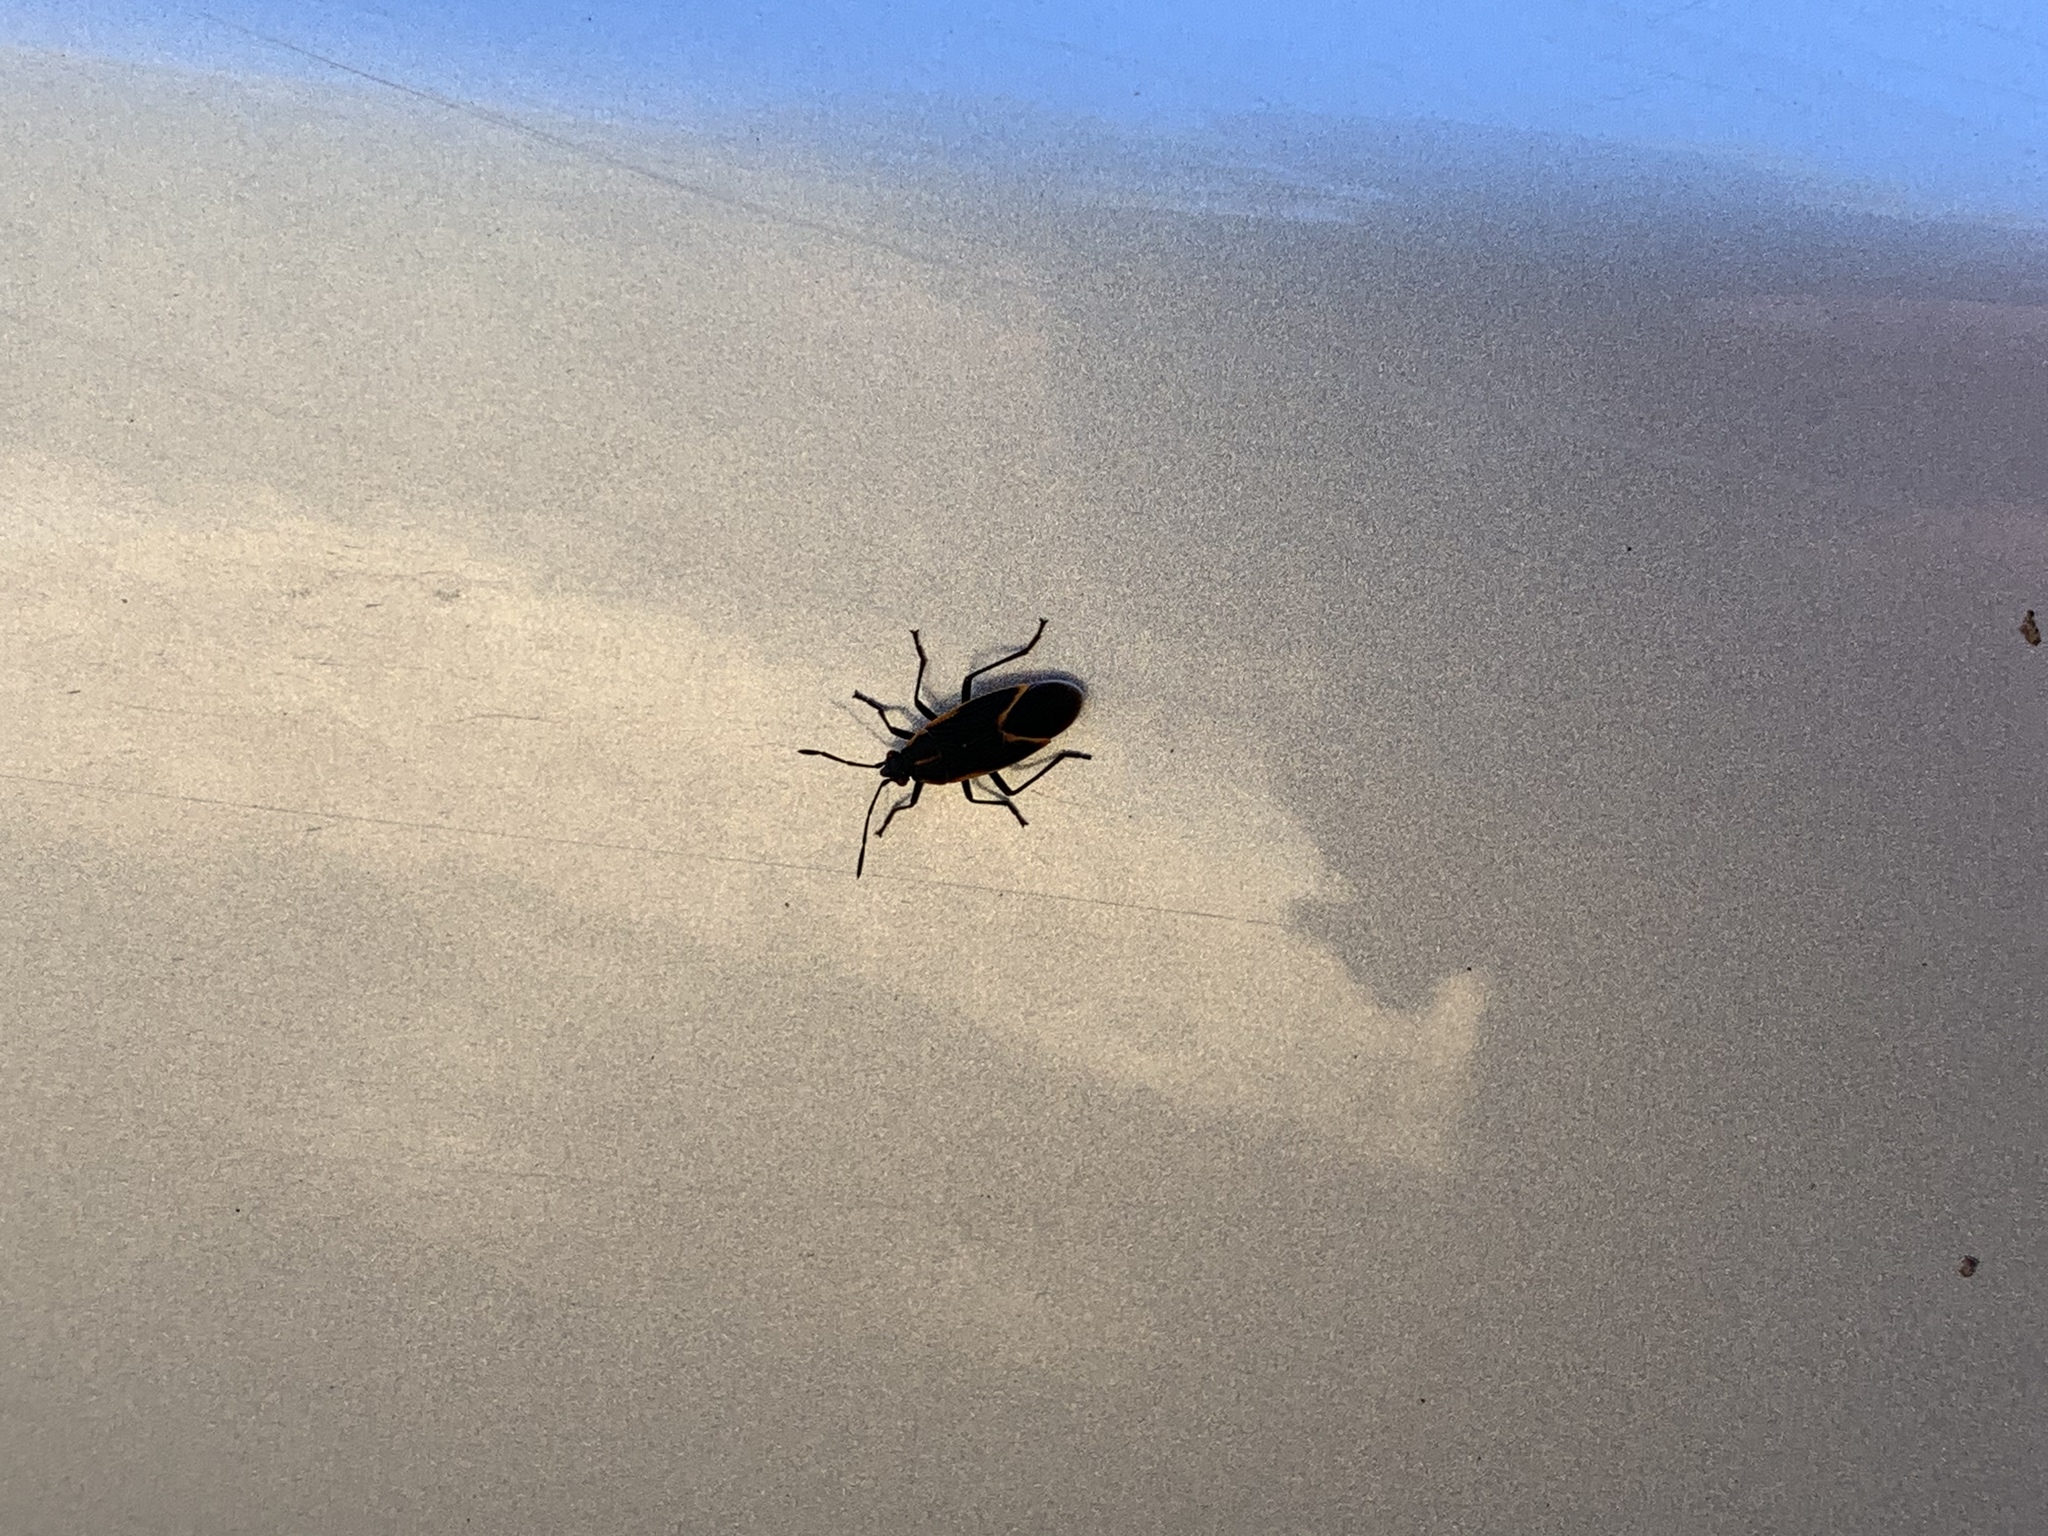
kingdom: Animalia
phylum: Arthropoda
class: Insecta
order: Hemiptera
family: Rhopalidae
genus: Boisea
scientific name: Boisea trivittata
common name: Boxelder bug
